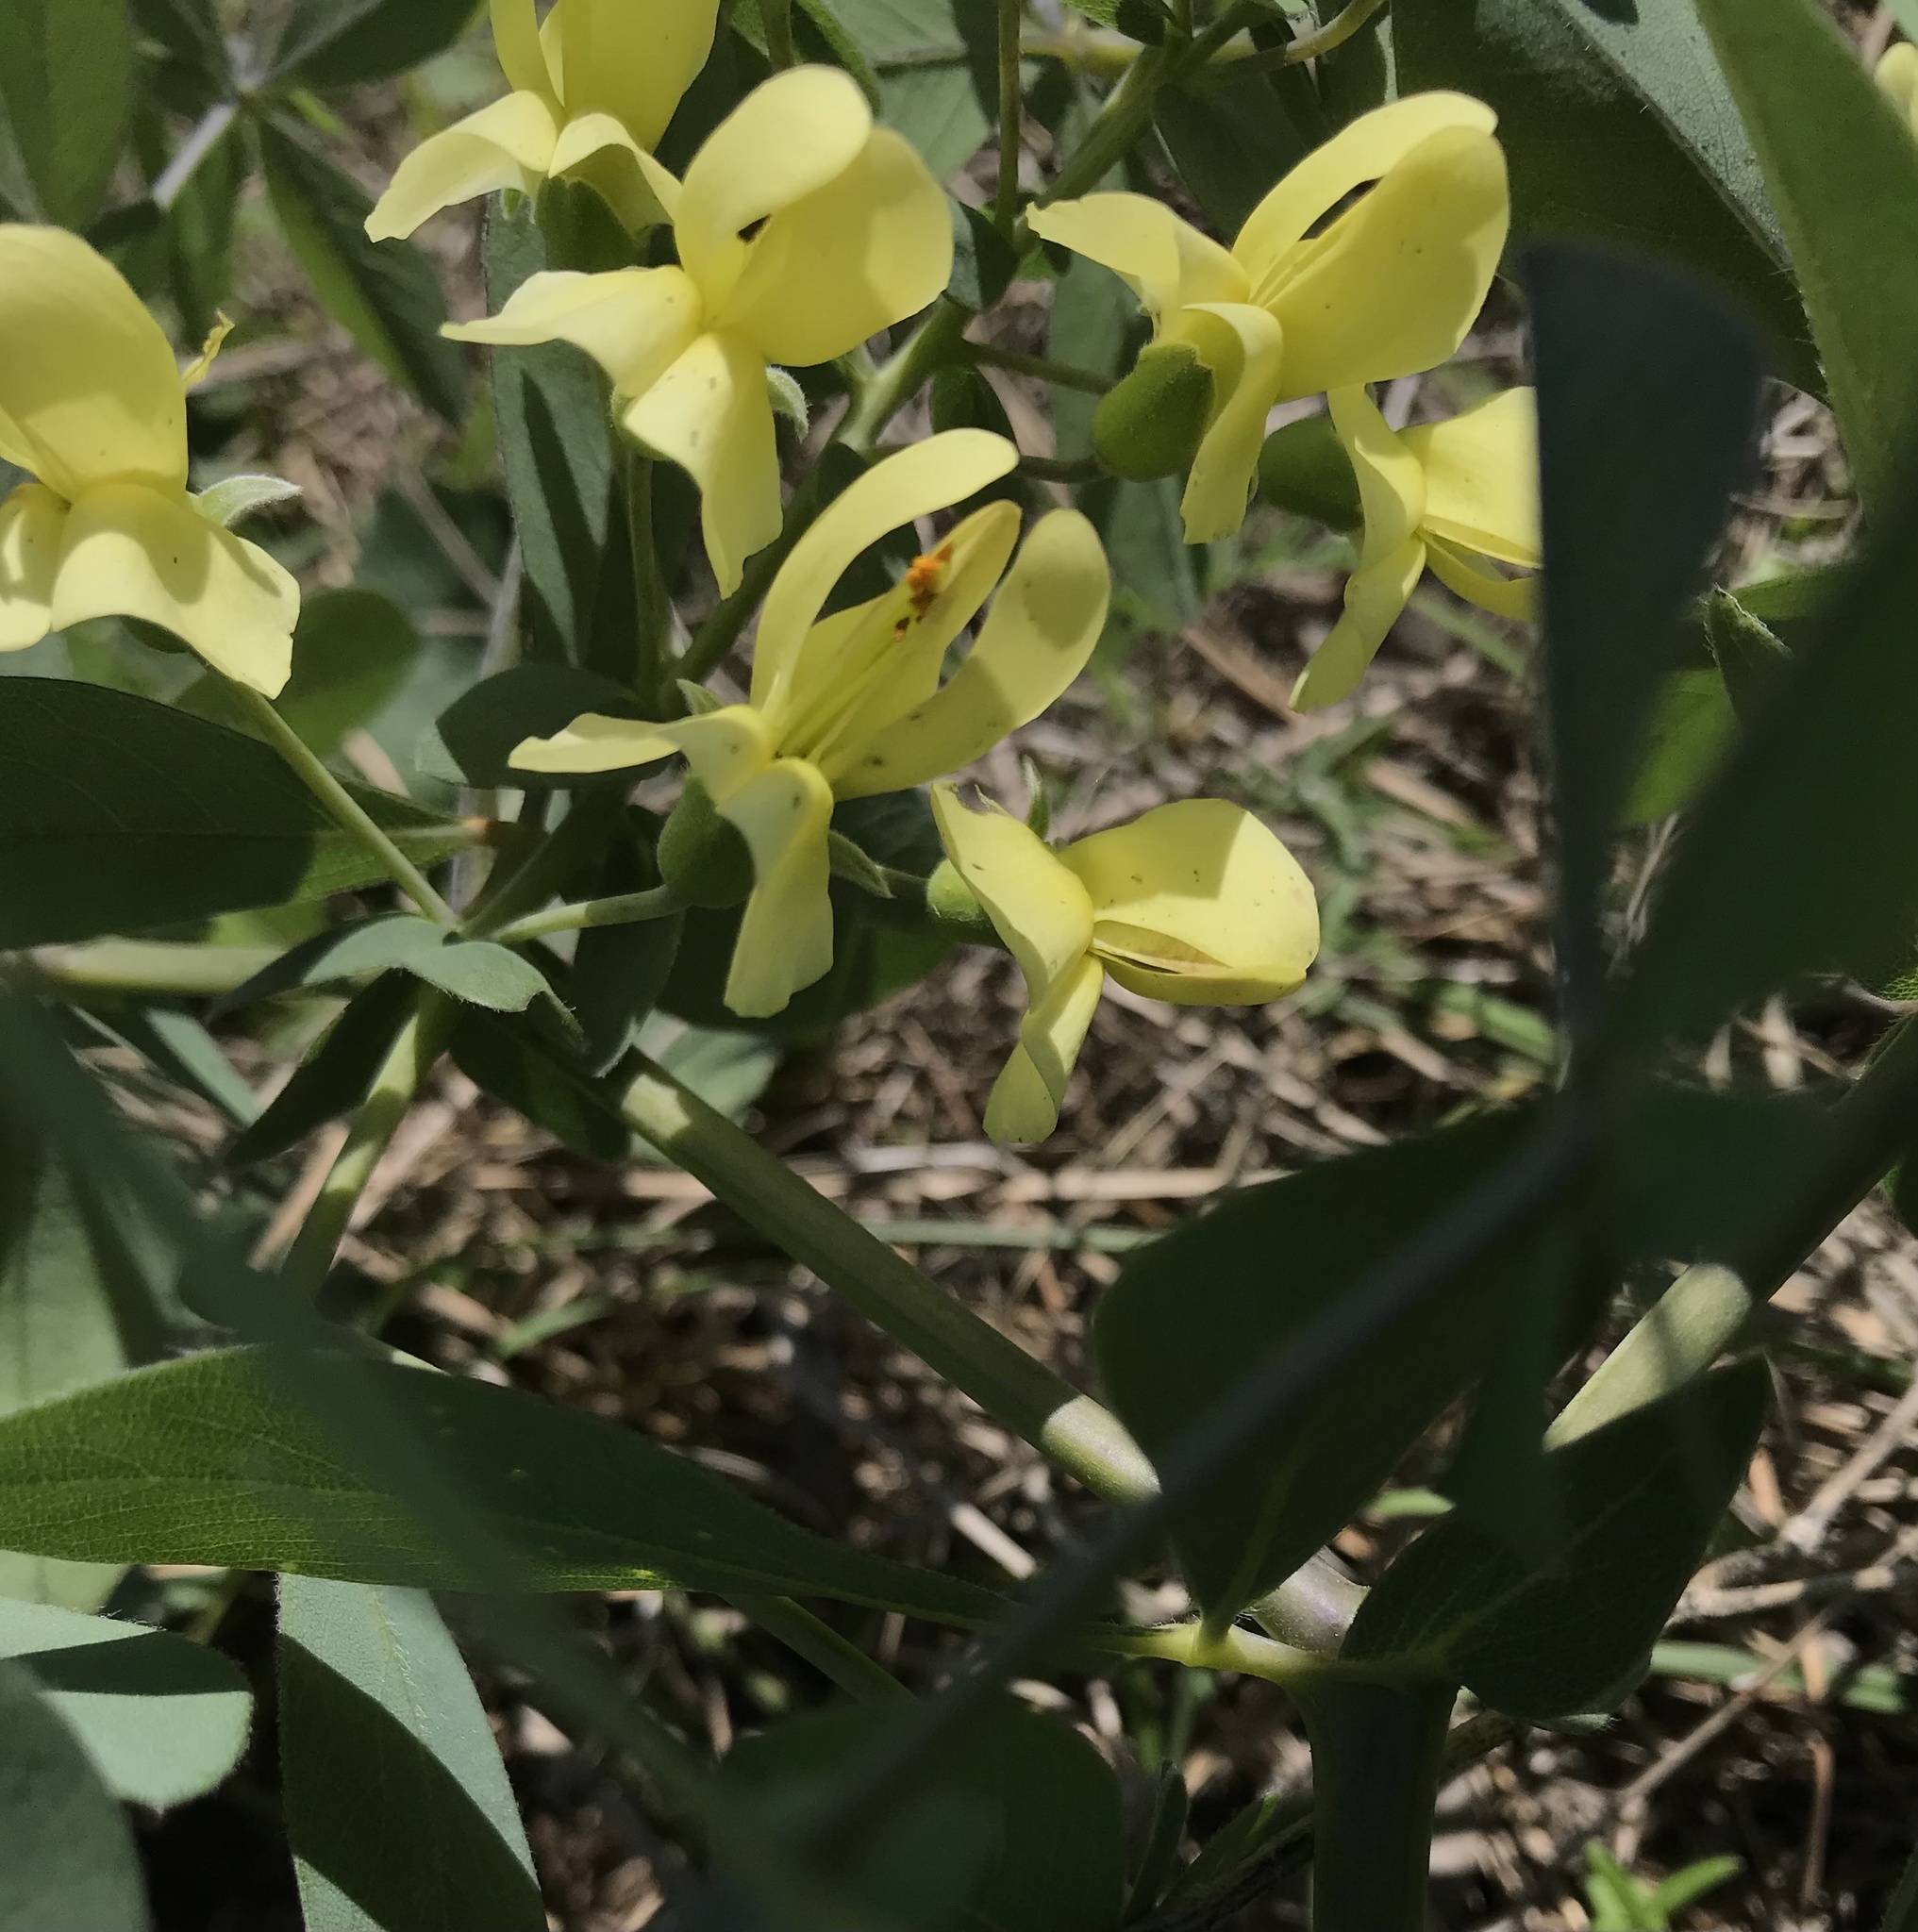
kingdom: Plantae
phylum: Tracheophyta
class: Magnoliopsida
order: Fabales
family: Fabaceae
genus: Baptisia
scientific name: Baptisia bracteata
